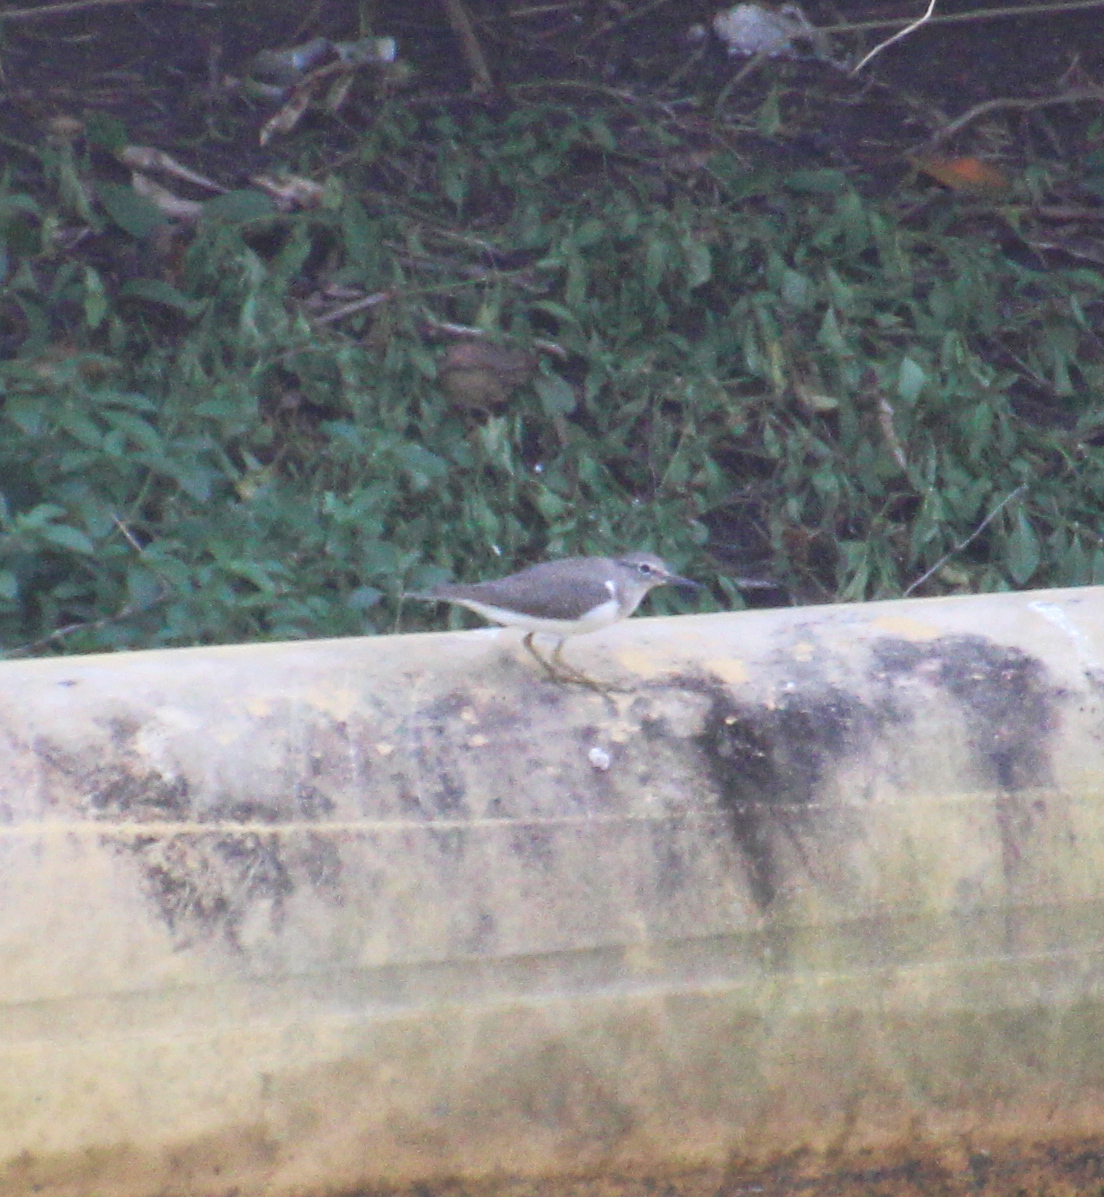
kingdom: Animalia
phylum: Chordata
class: Aves
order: Charadriiformes
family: Scolopacidae
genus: Actitis
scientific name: Actitis hypoleucos
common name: Common sandpiper
